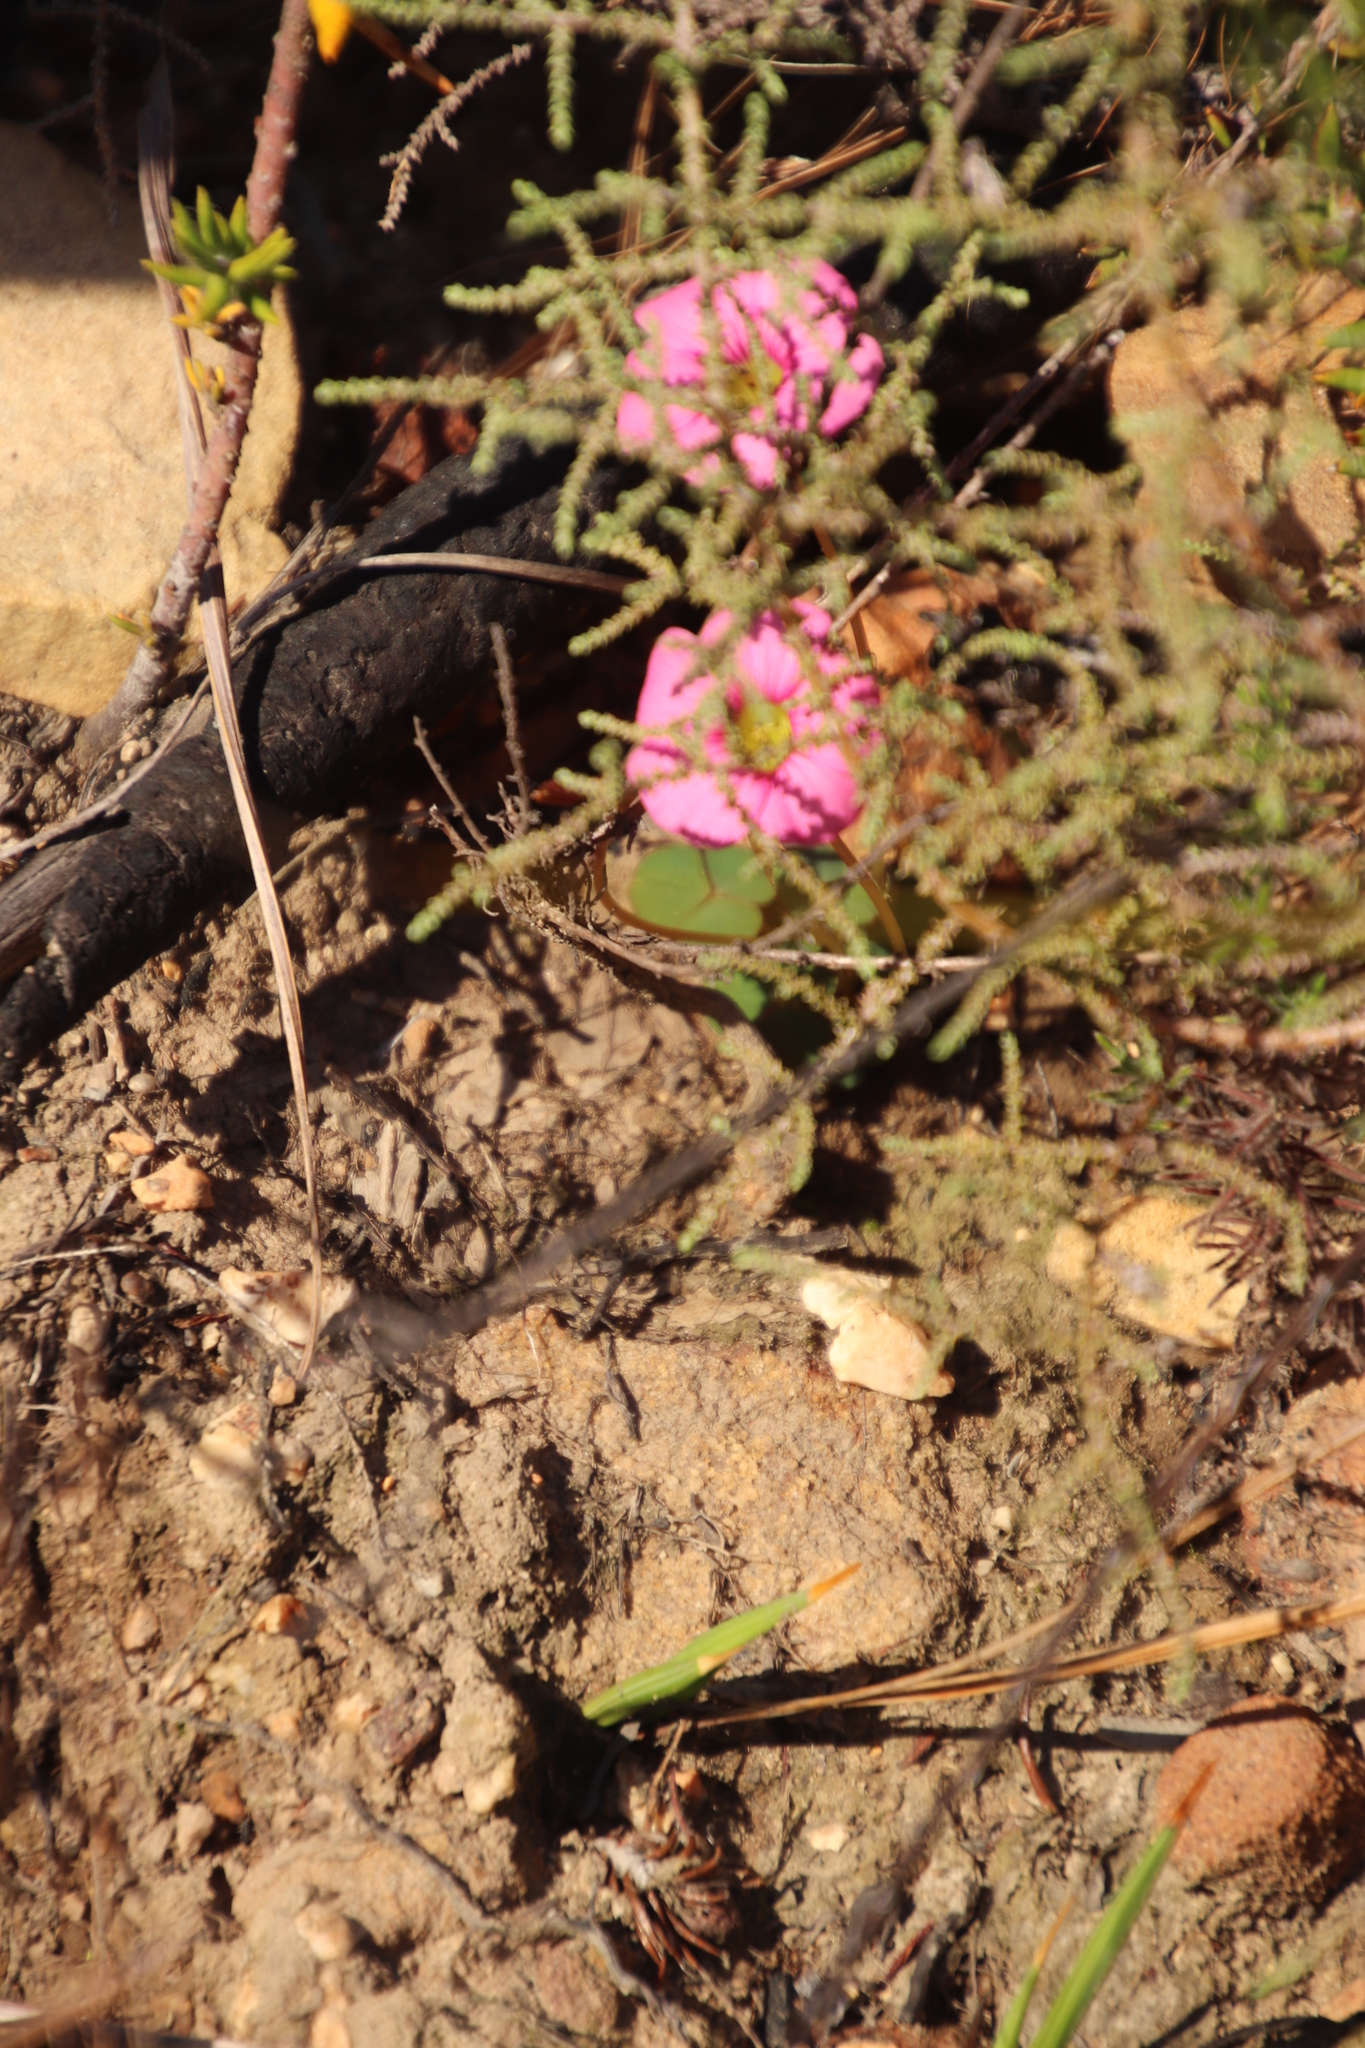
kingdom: Plantae
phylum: Tracheophyta
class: Magnoliopsida
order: Oxalidales
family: Oxalidaceae
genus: Oxalis
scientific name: Oxalis commutata
